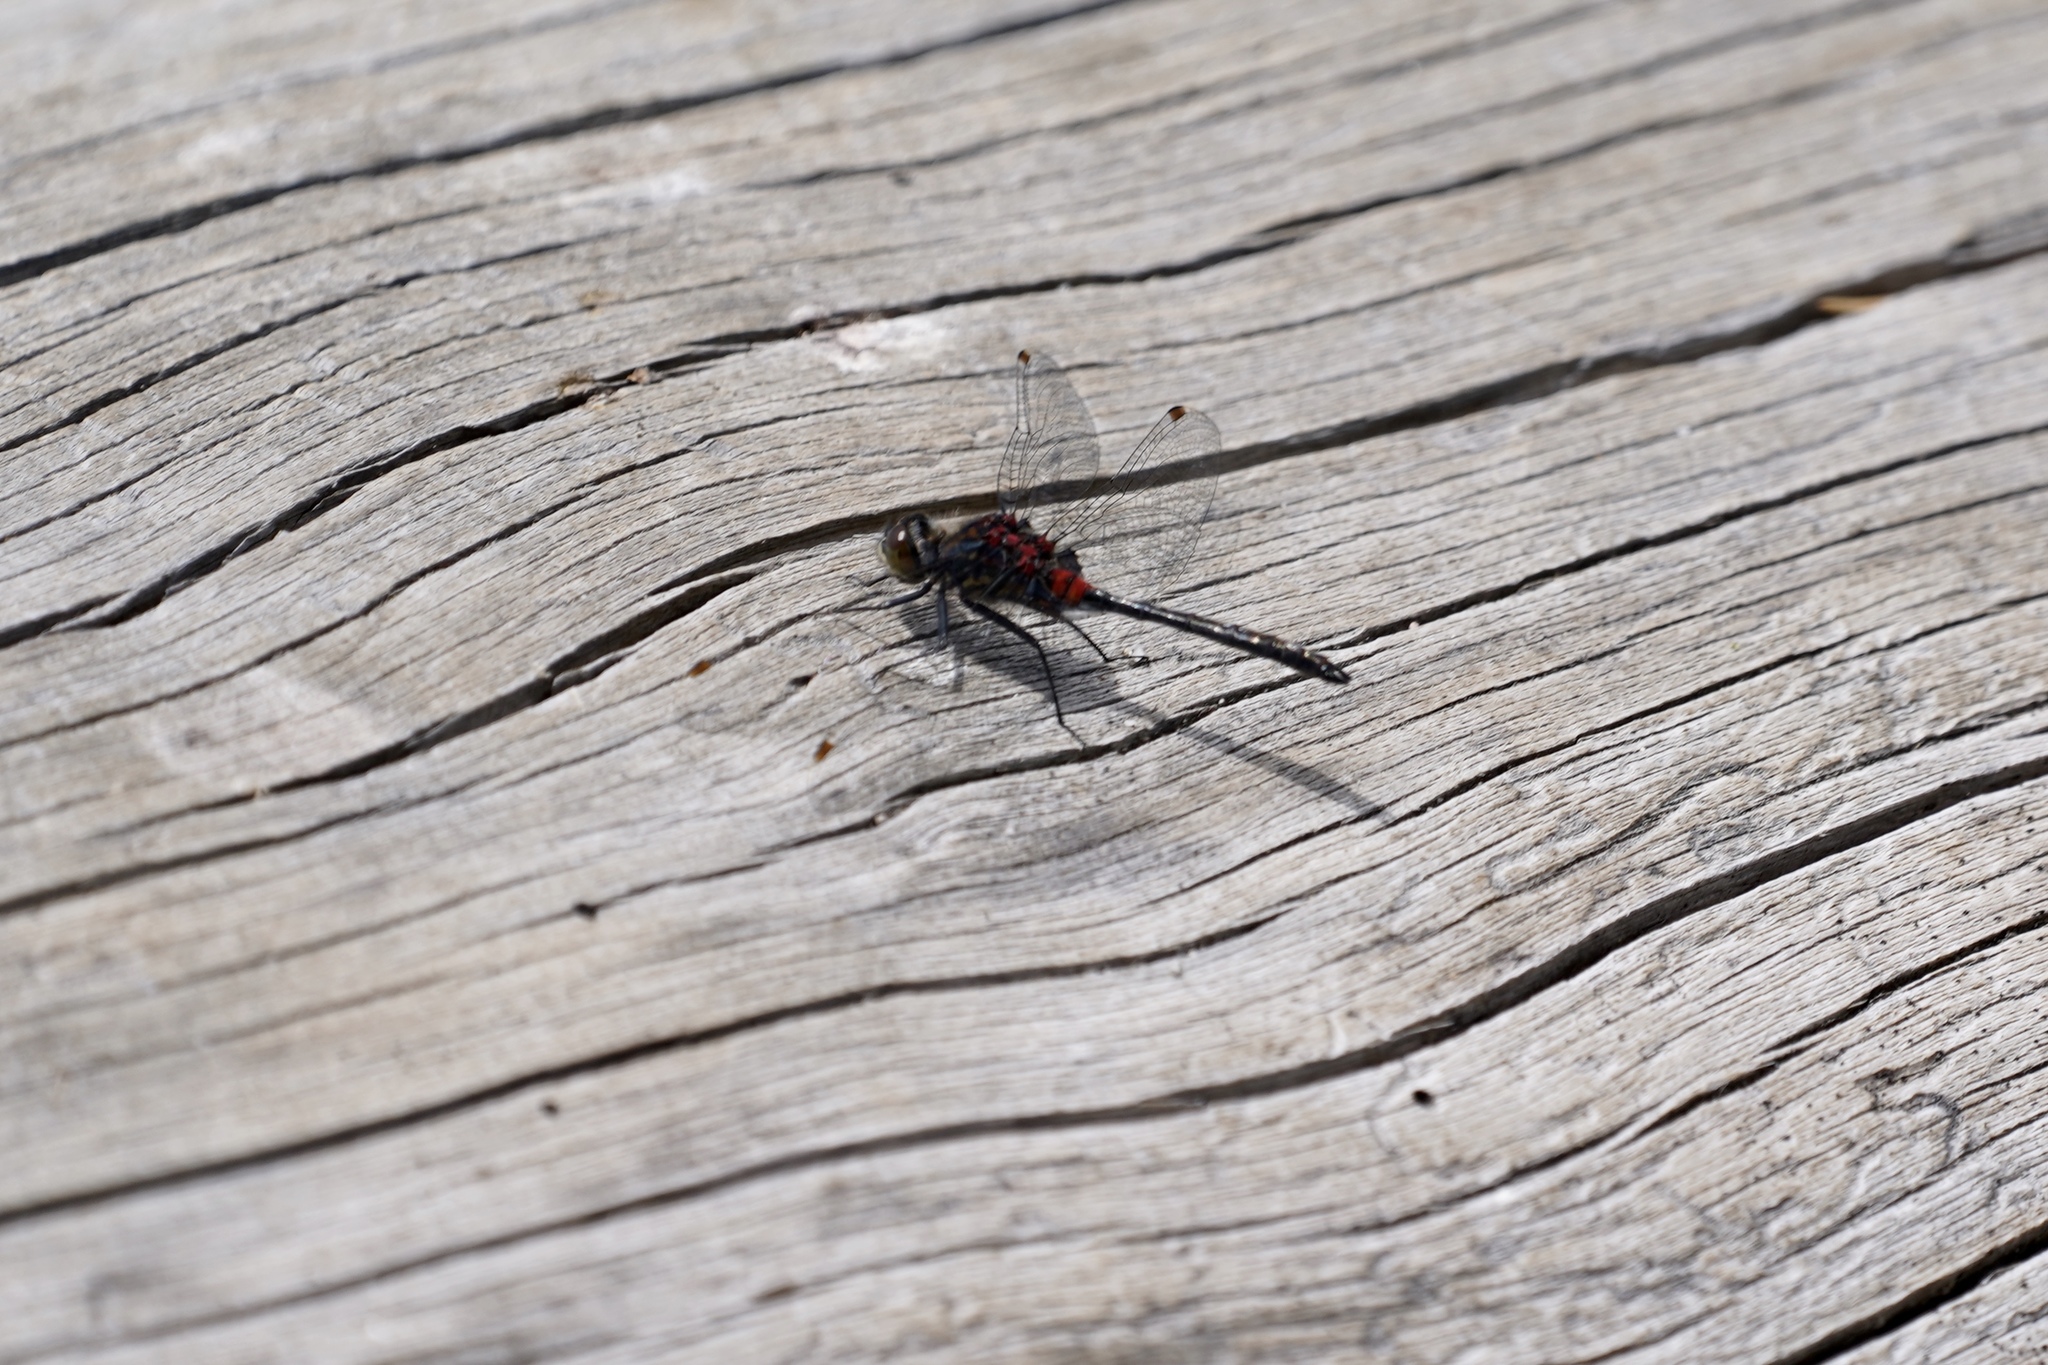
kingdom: Animalia
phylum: Arthropoda
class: Insecta
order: Odonata
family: Libellulidae
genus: Leucorrhinia
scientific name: Leucorrhinia glacialis
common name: Crimson-ringed whiteface
